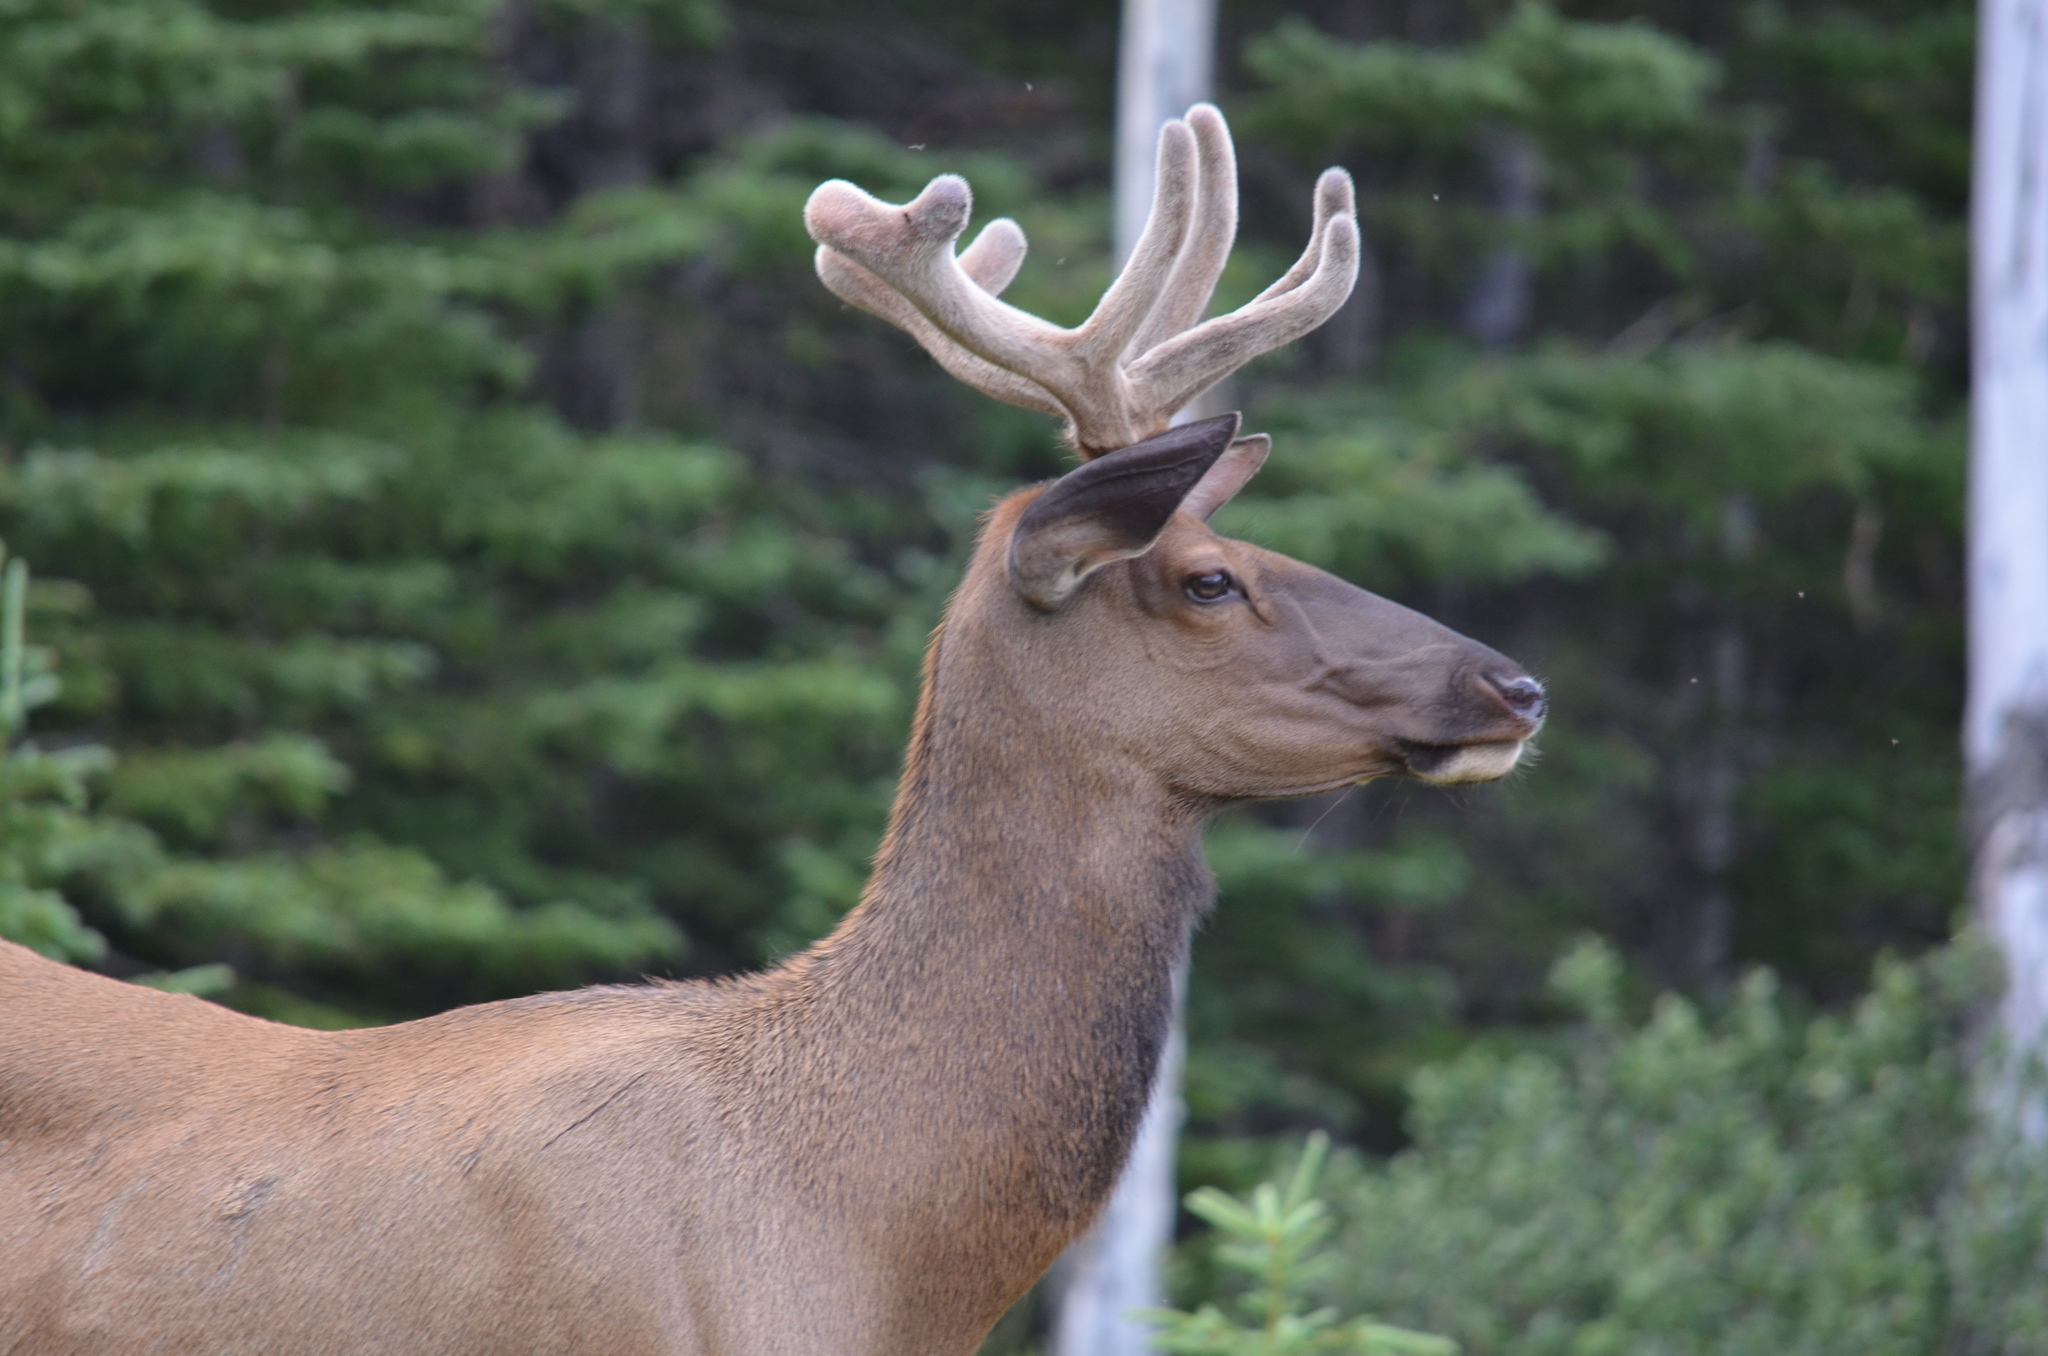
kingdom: Animalia
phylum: Chordata
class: Mammalia
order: Artiodactyla
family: Cervidae
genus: Cervus
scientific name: Cervus elaphus
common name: Red deer
